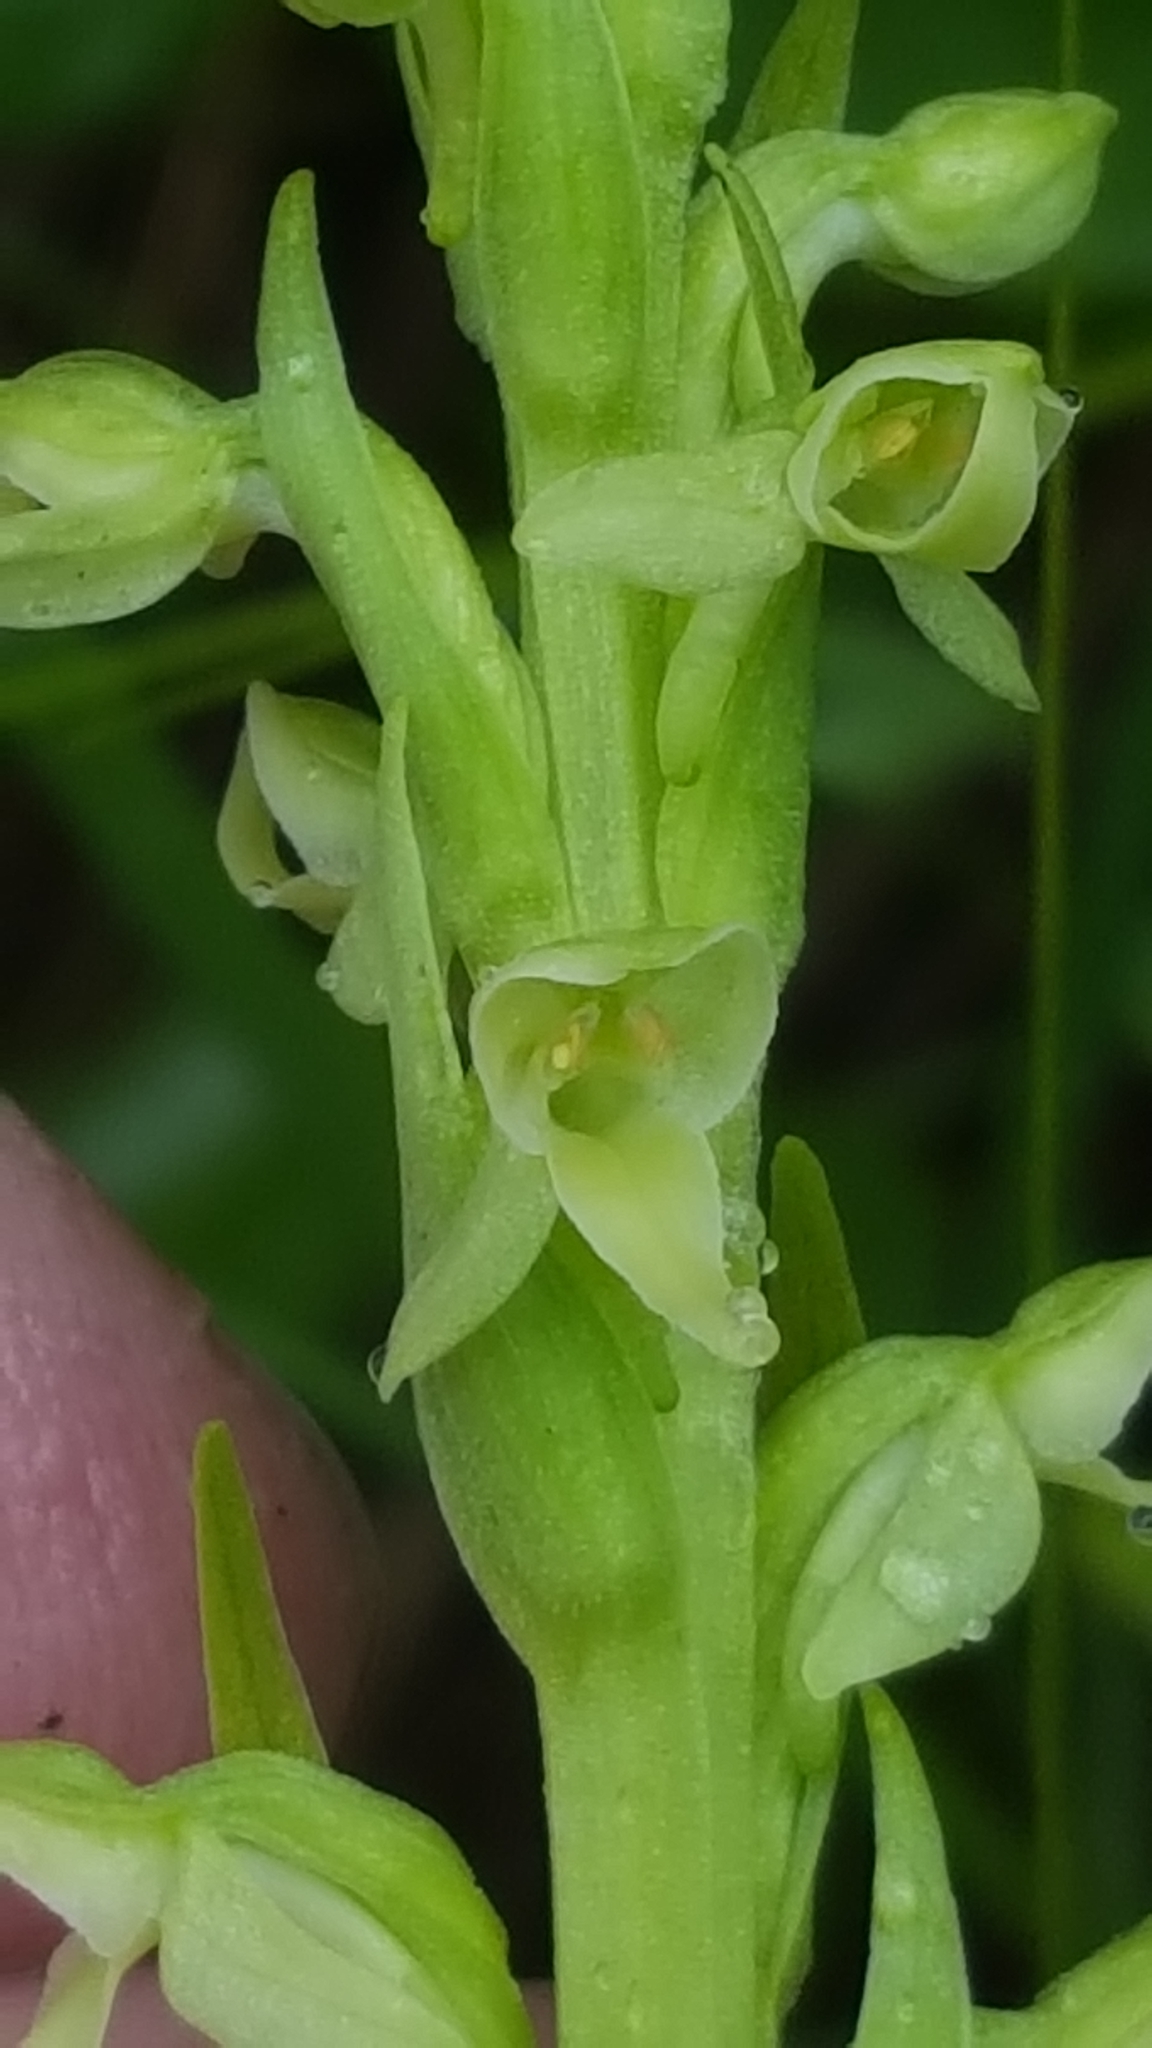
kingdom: Plantae
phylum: Tracheophyta
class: Liliopsida
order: Asparagales
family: Orchidaceae
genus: Platanthera
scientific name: Platanthera huronensis
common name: Fragrant green orchid
